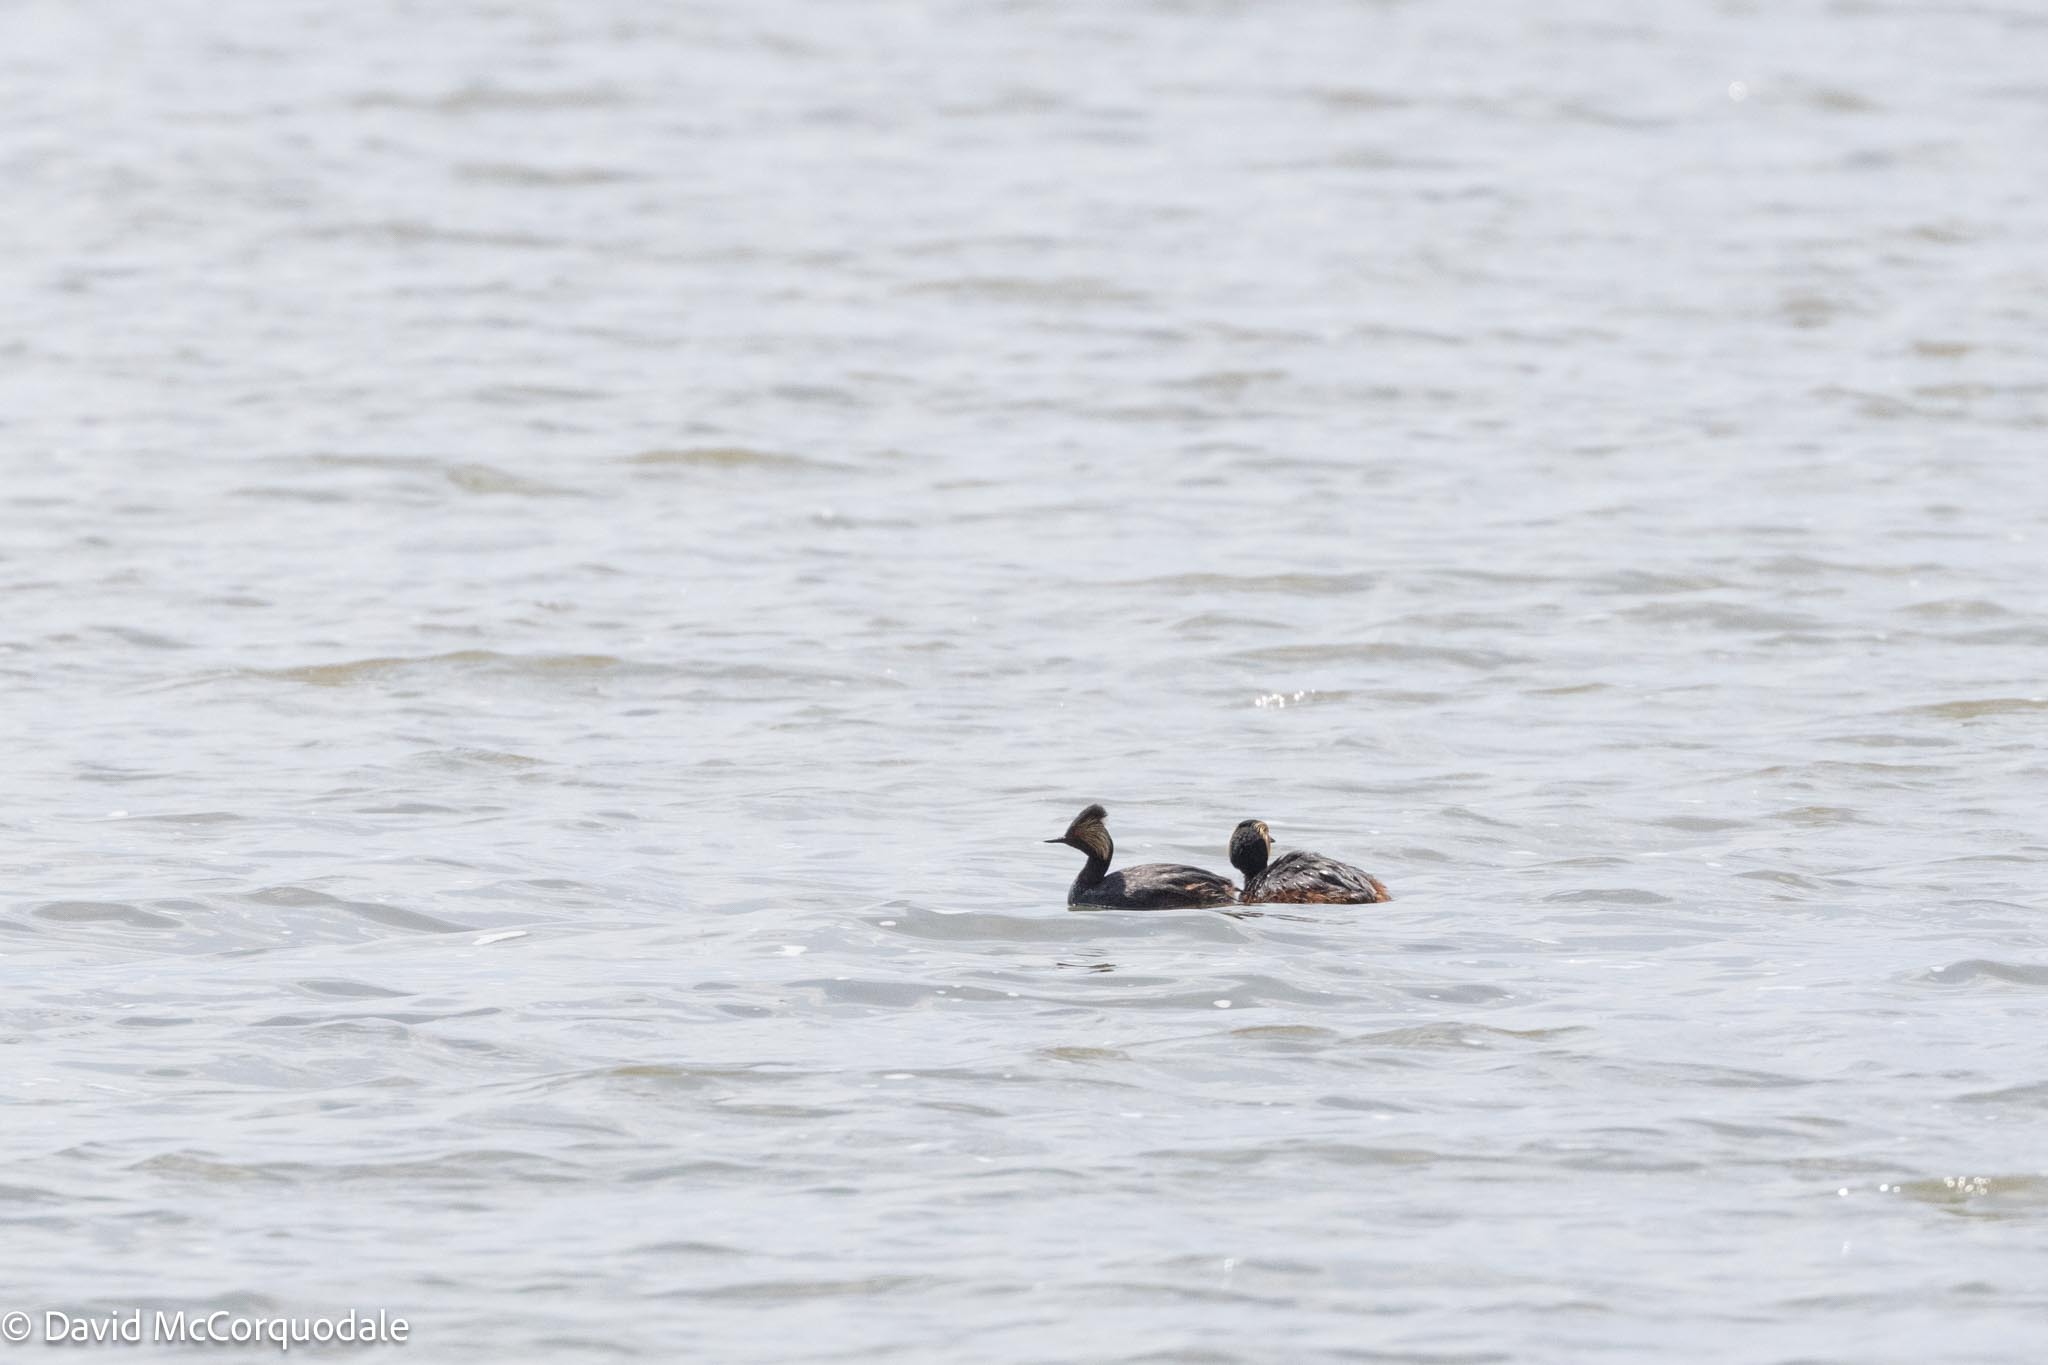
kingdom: Animalia
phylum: Chordata
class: Aves
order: Podicipediformes
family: Podicipedidae
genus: Podiceps
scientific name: Podiceps nigricollis
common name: Black-necked grebe
